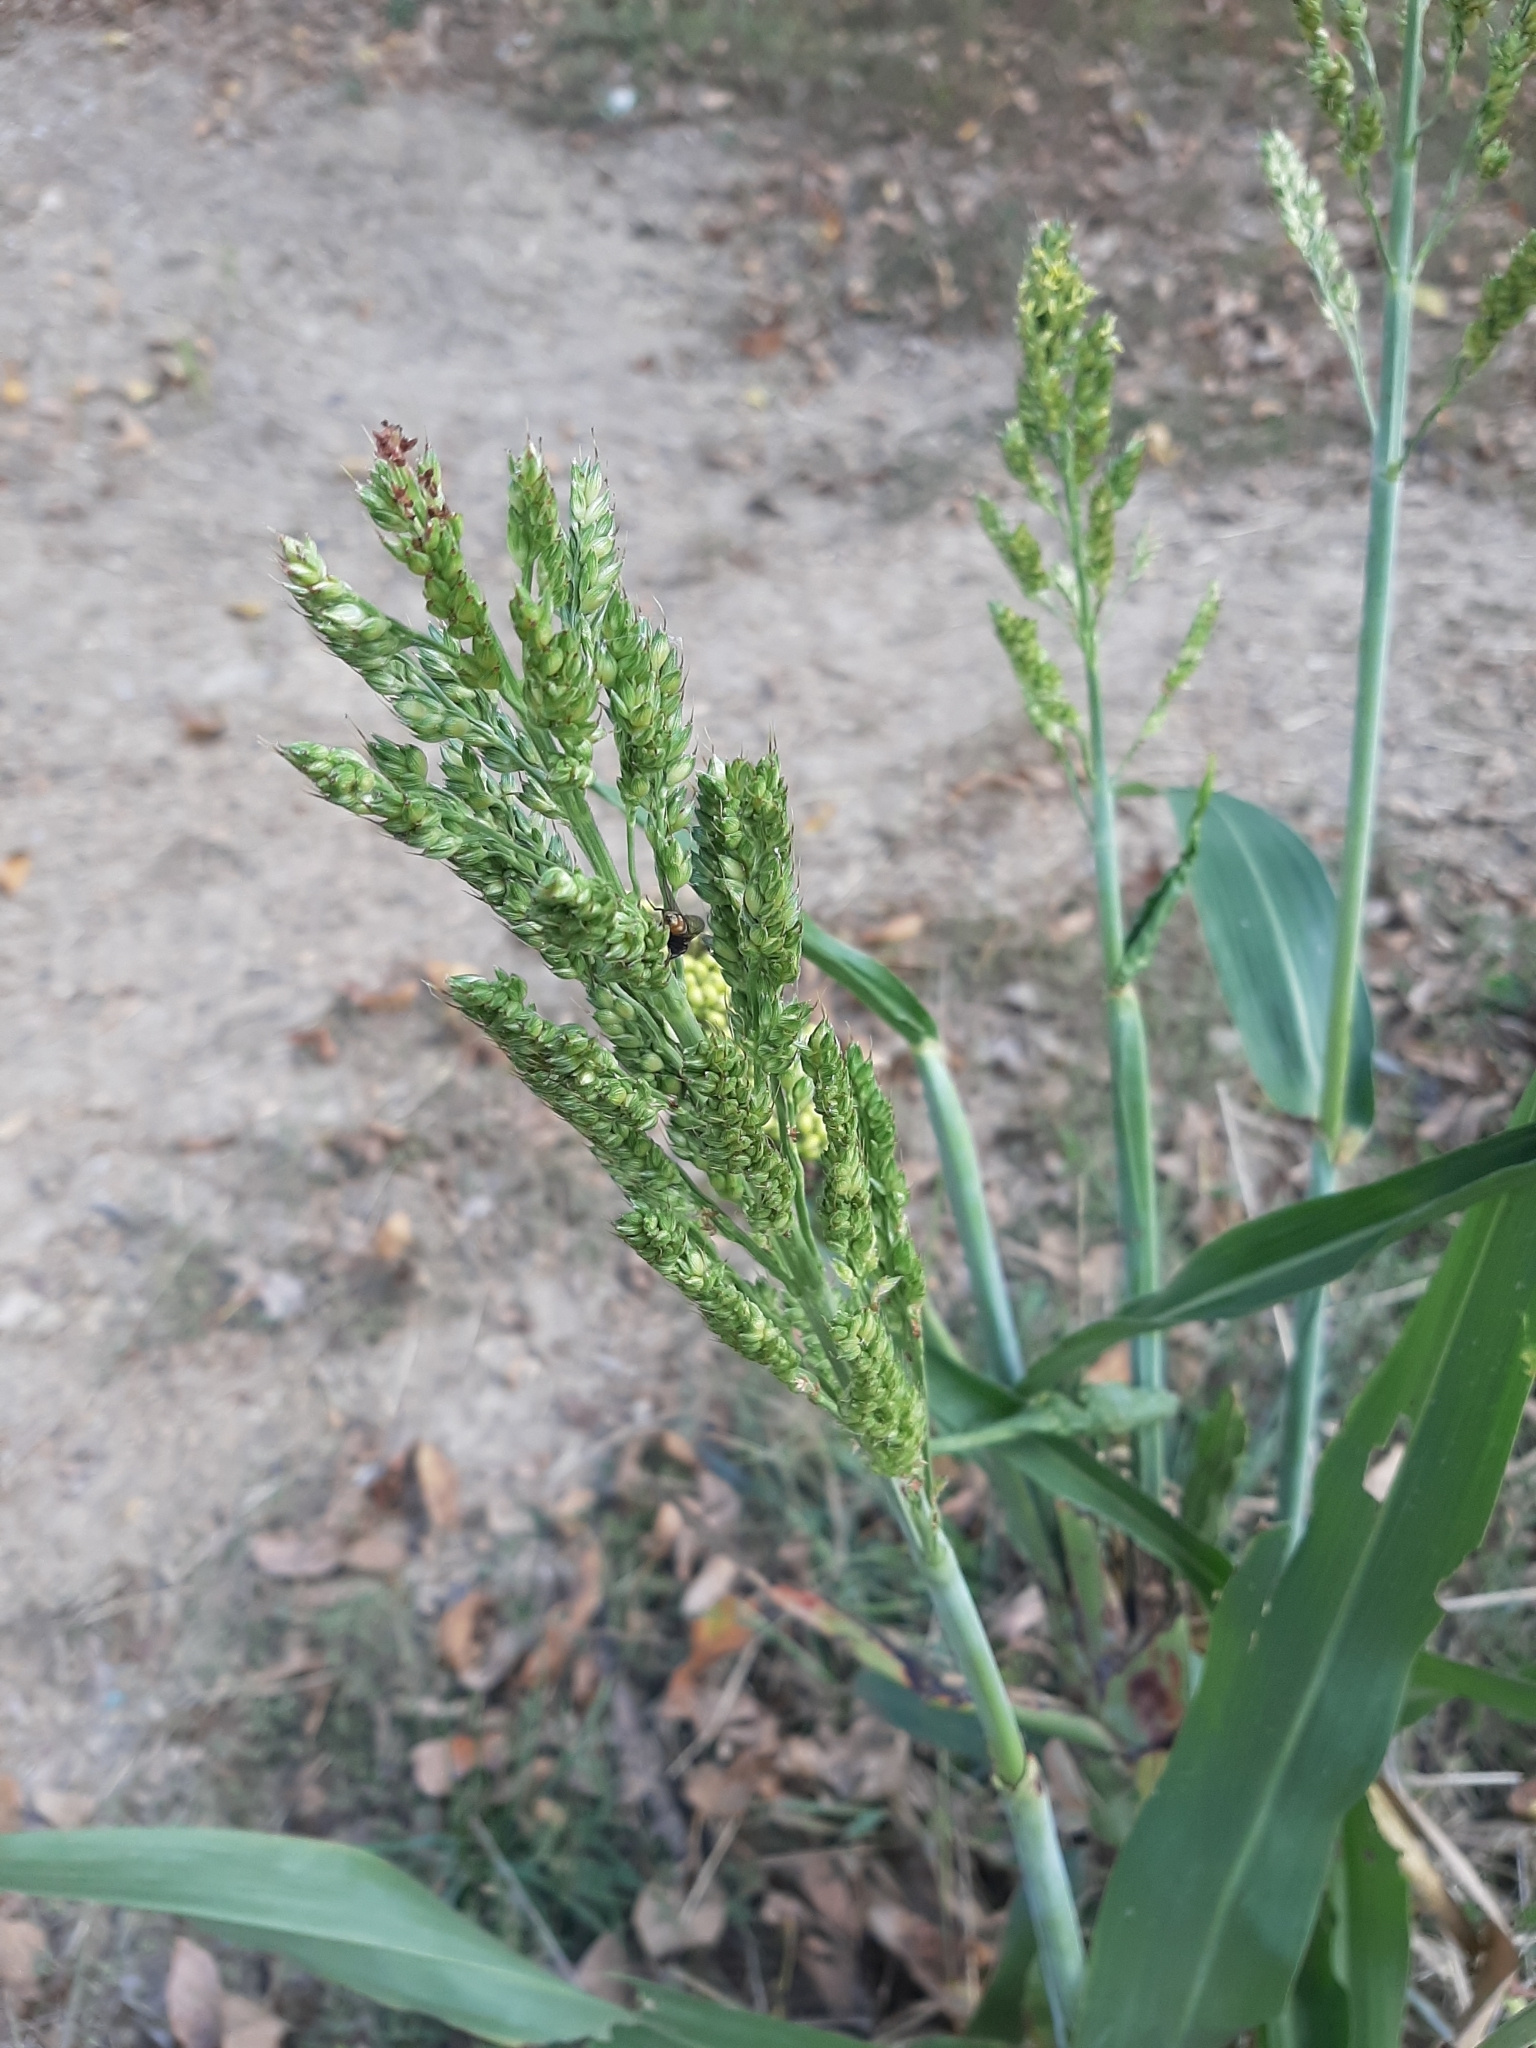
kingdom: Plantae
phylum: Tracheophyta
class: Liliopsida
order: Poales
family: Poaceae
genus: Sorghum
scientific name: Sorghum bicolor
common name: Sorghum
